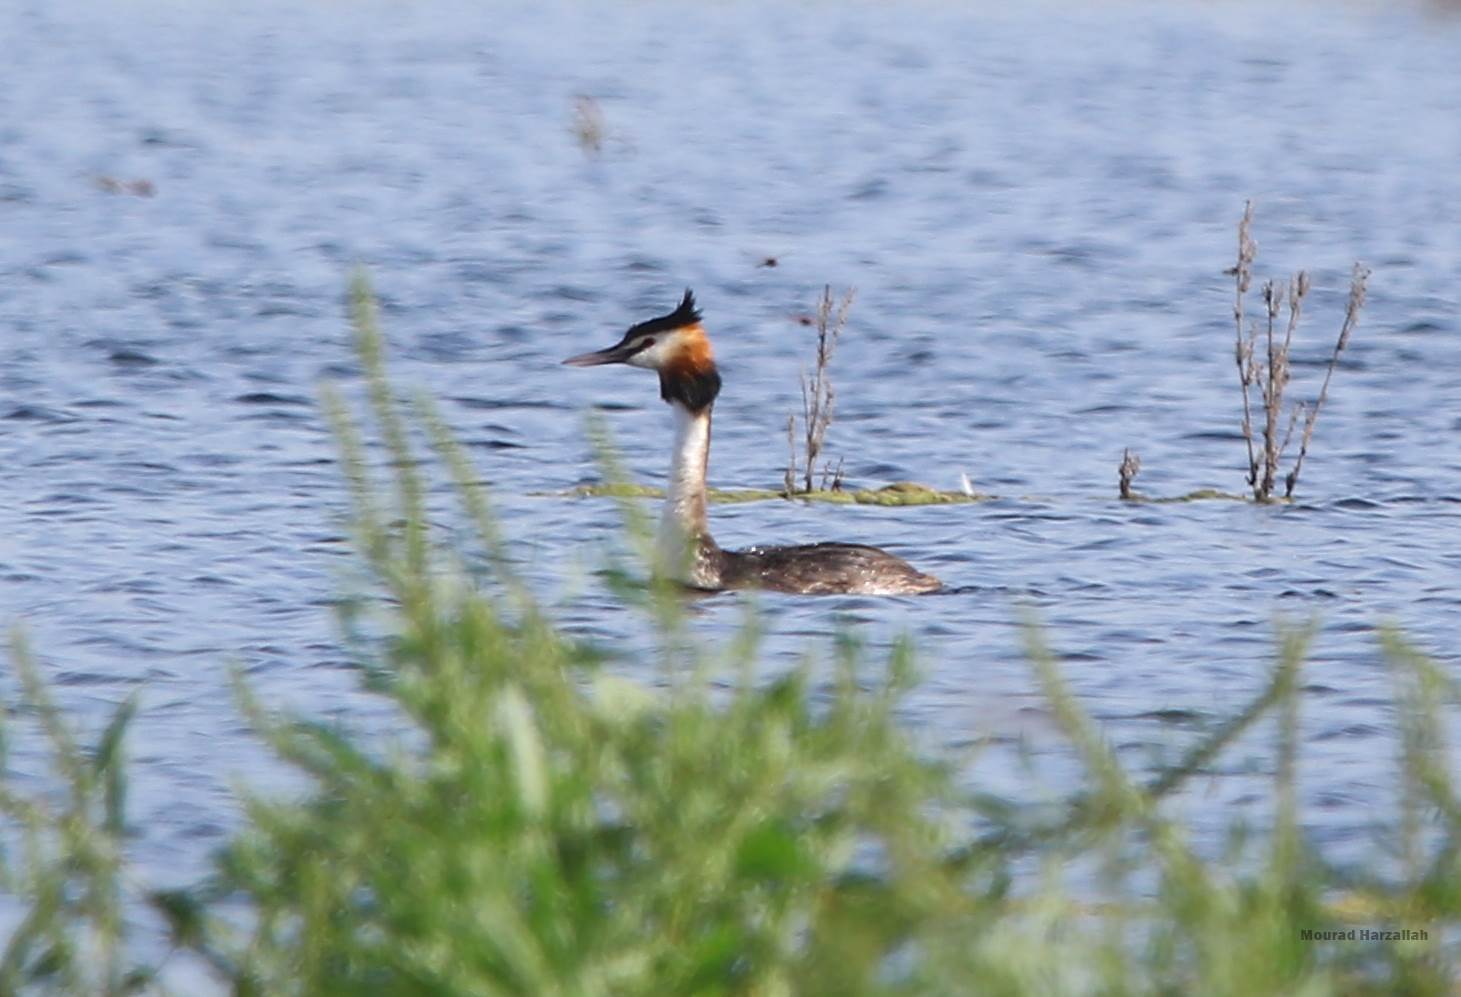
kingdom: Animalia
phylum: Chordata
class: Aves
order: Podicipediformes
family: Podicipedidae
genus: Podiceps
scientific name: Podiceps cristatus
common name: Great crested grebe
